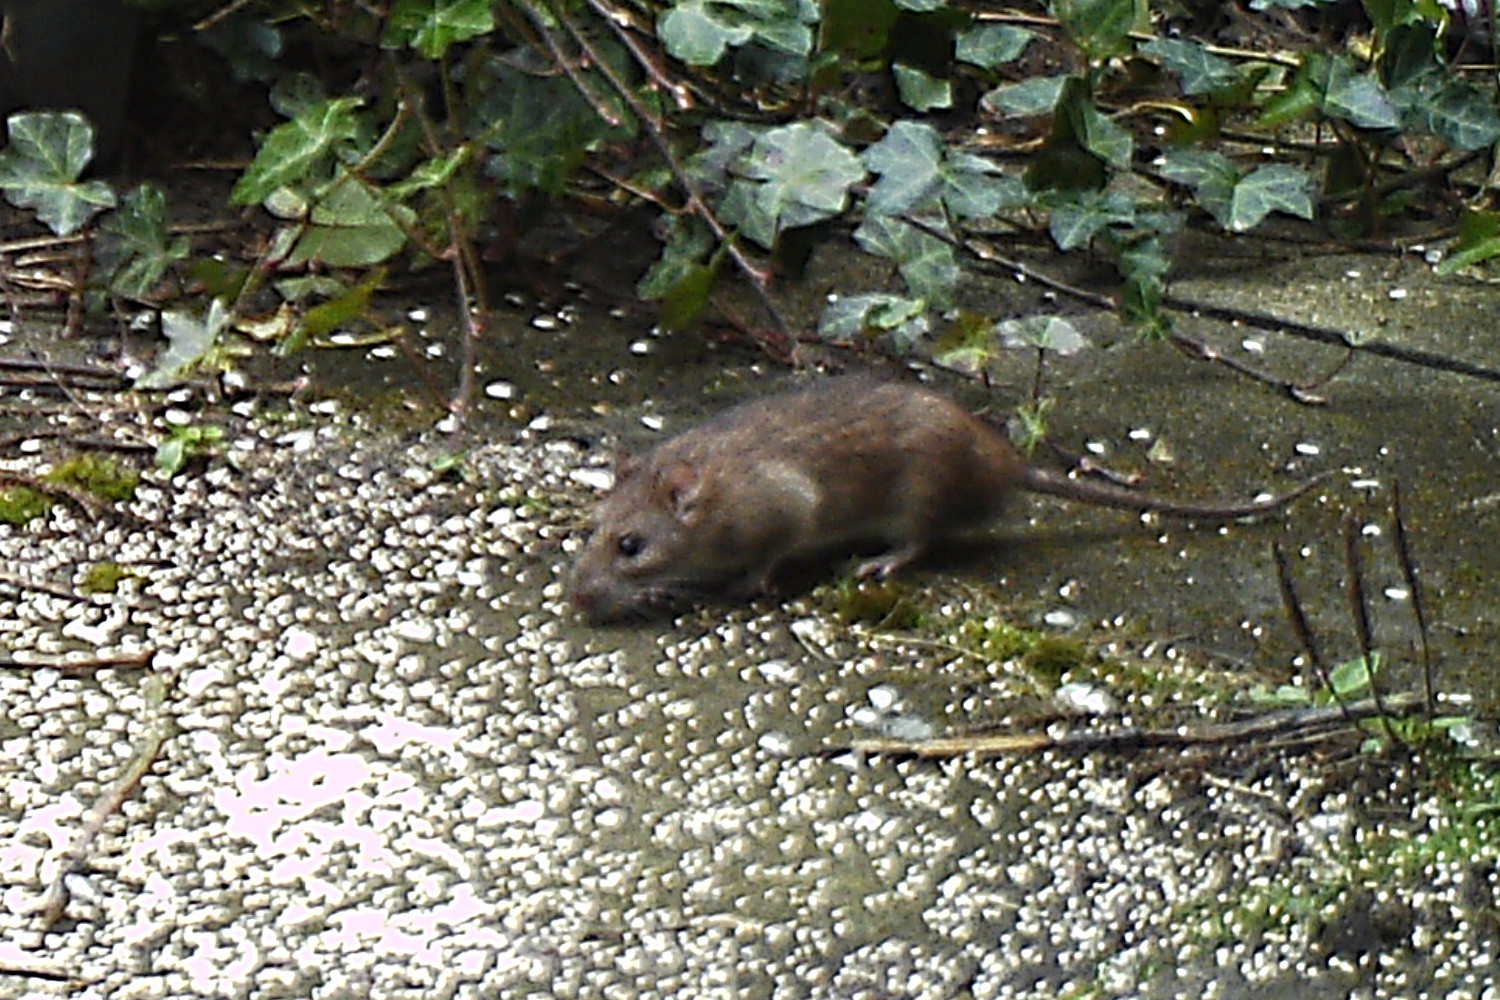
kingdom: Animalia
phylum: Chordata
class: Mammalia
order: Rodentia
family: Muridae
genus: Rattus
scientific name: Rattus norvegicus
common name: Brown rat
